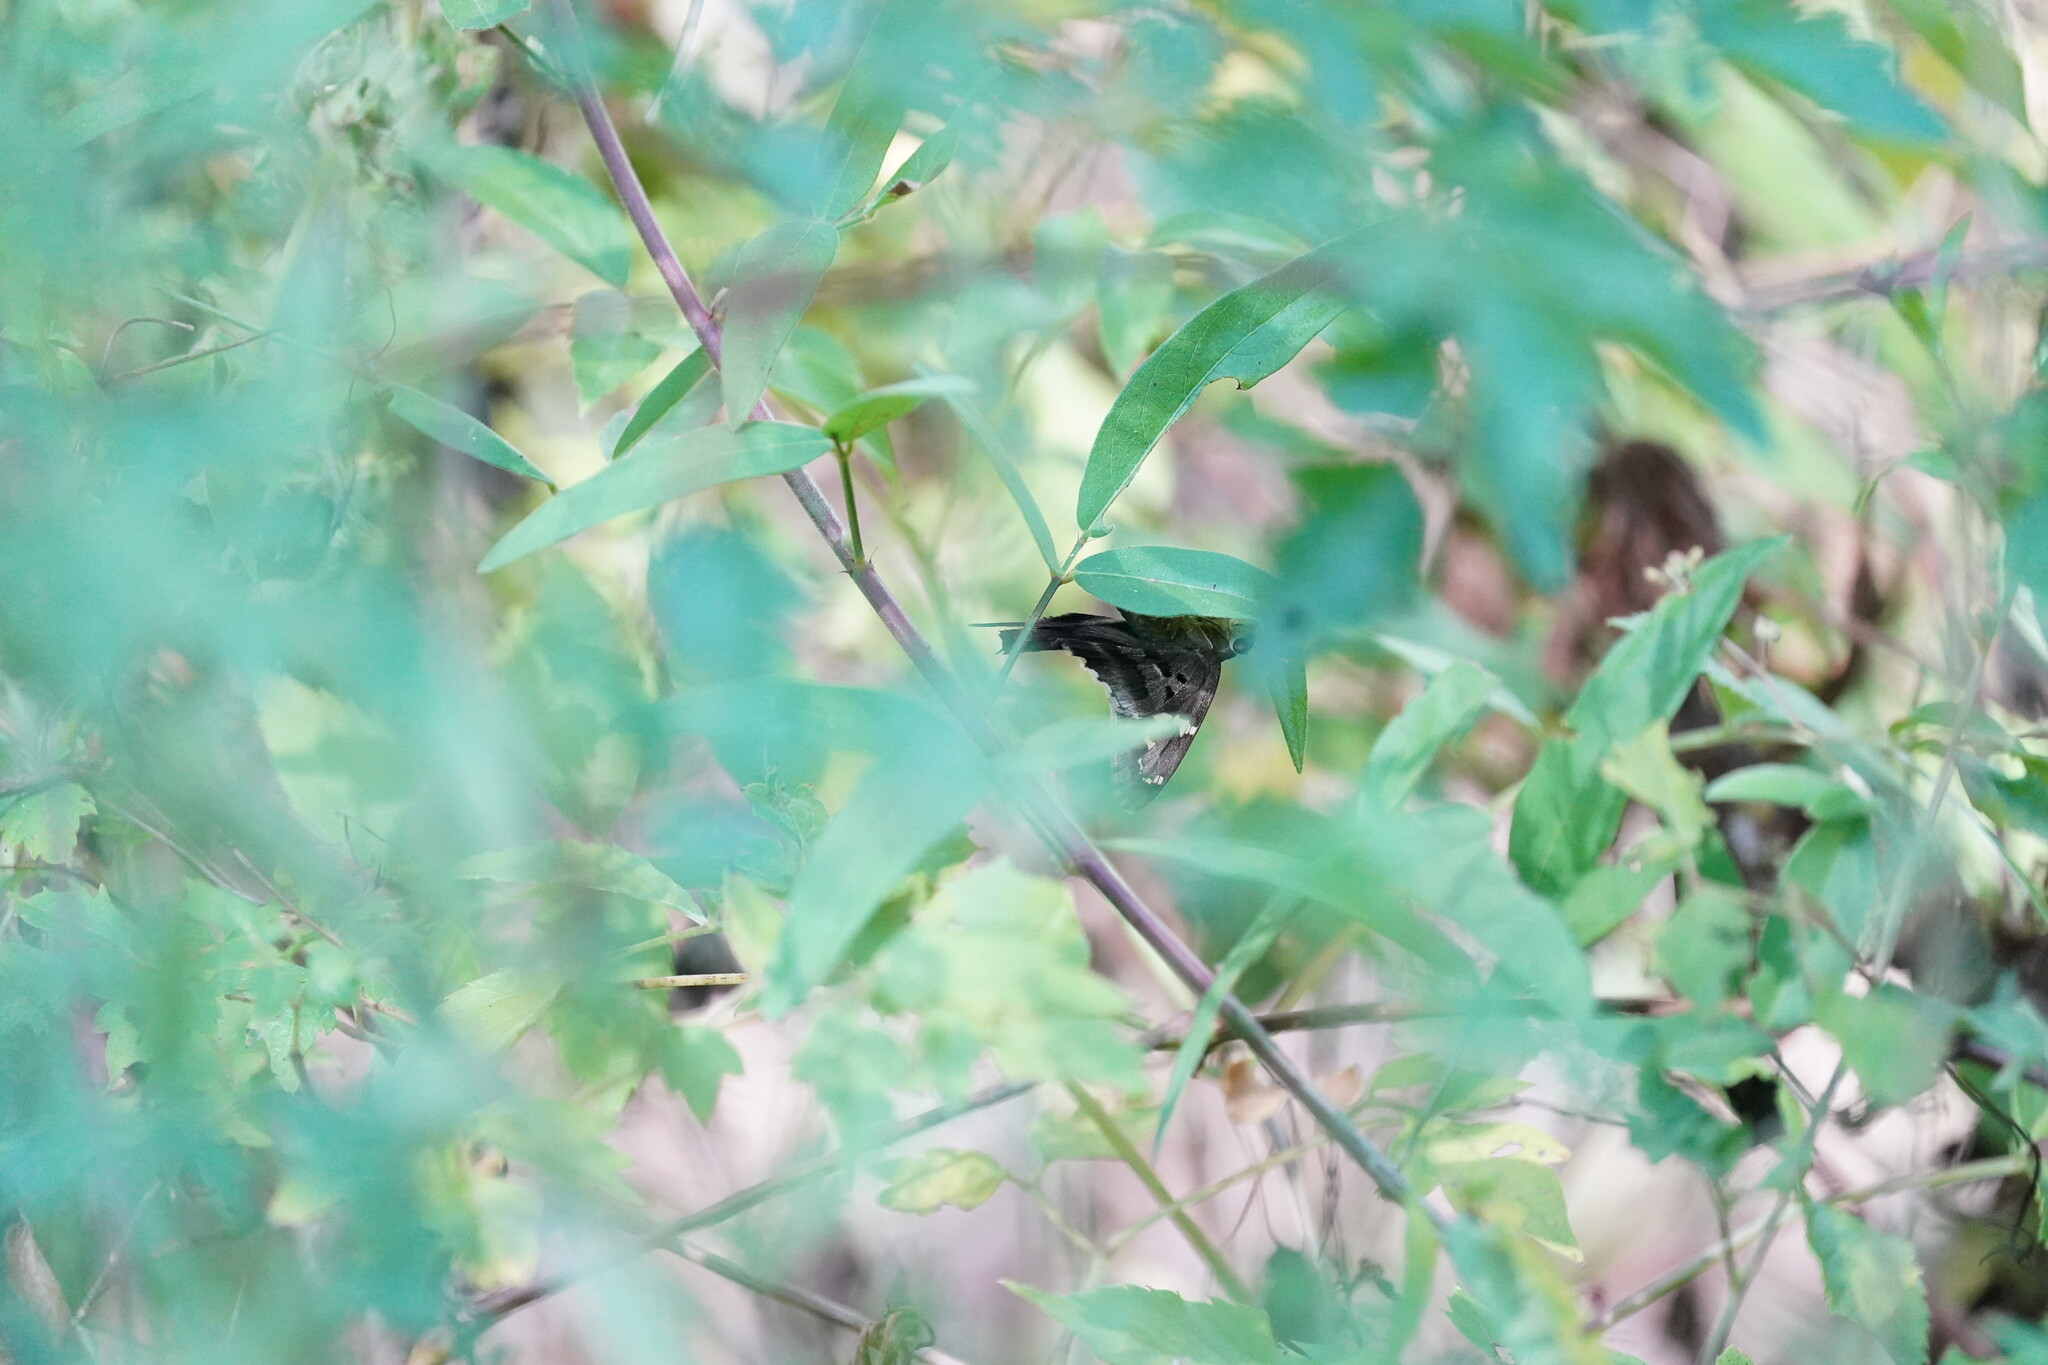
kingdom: Animalia
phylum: Arthropoda
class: Insecta
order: Lepidoptera
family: Hesperiidae
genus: Urbanus
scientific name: Urbanus proteus
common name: Long-tailed skipper
